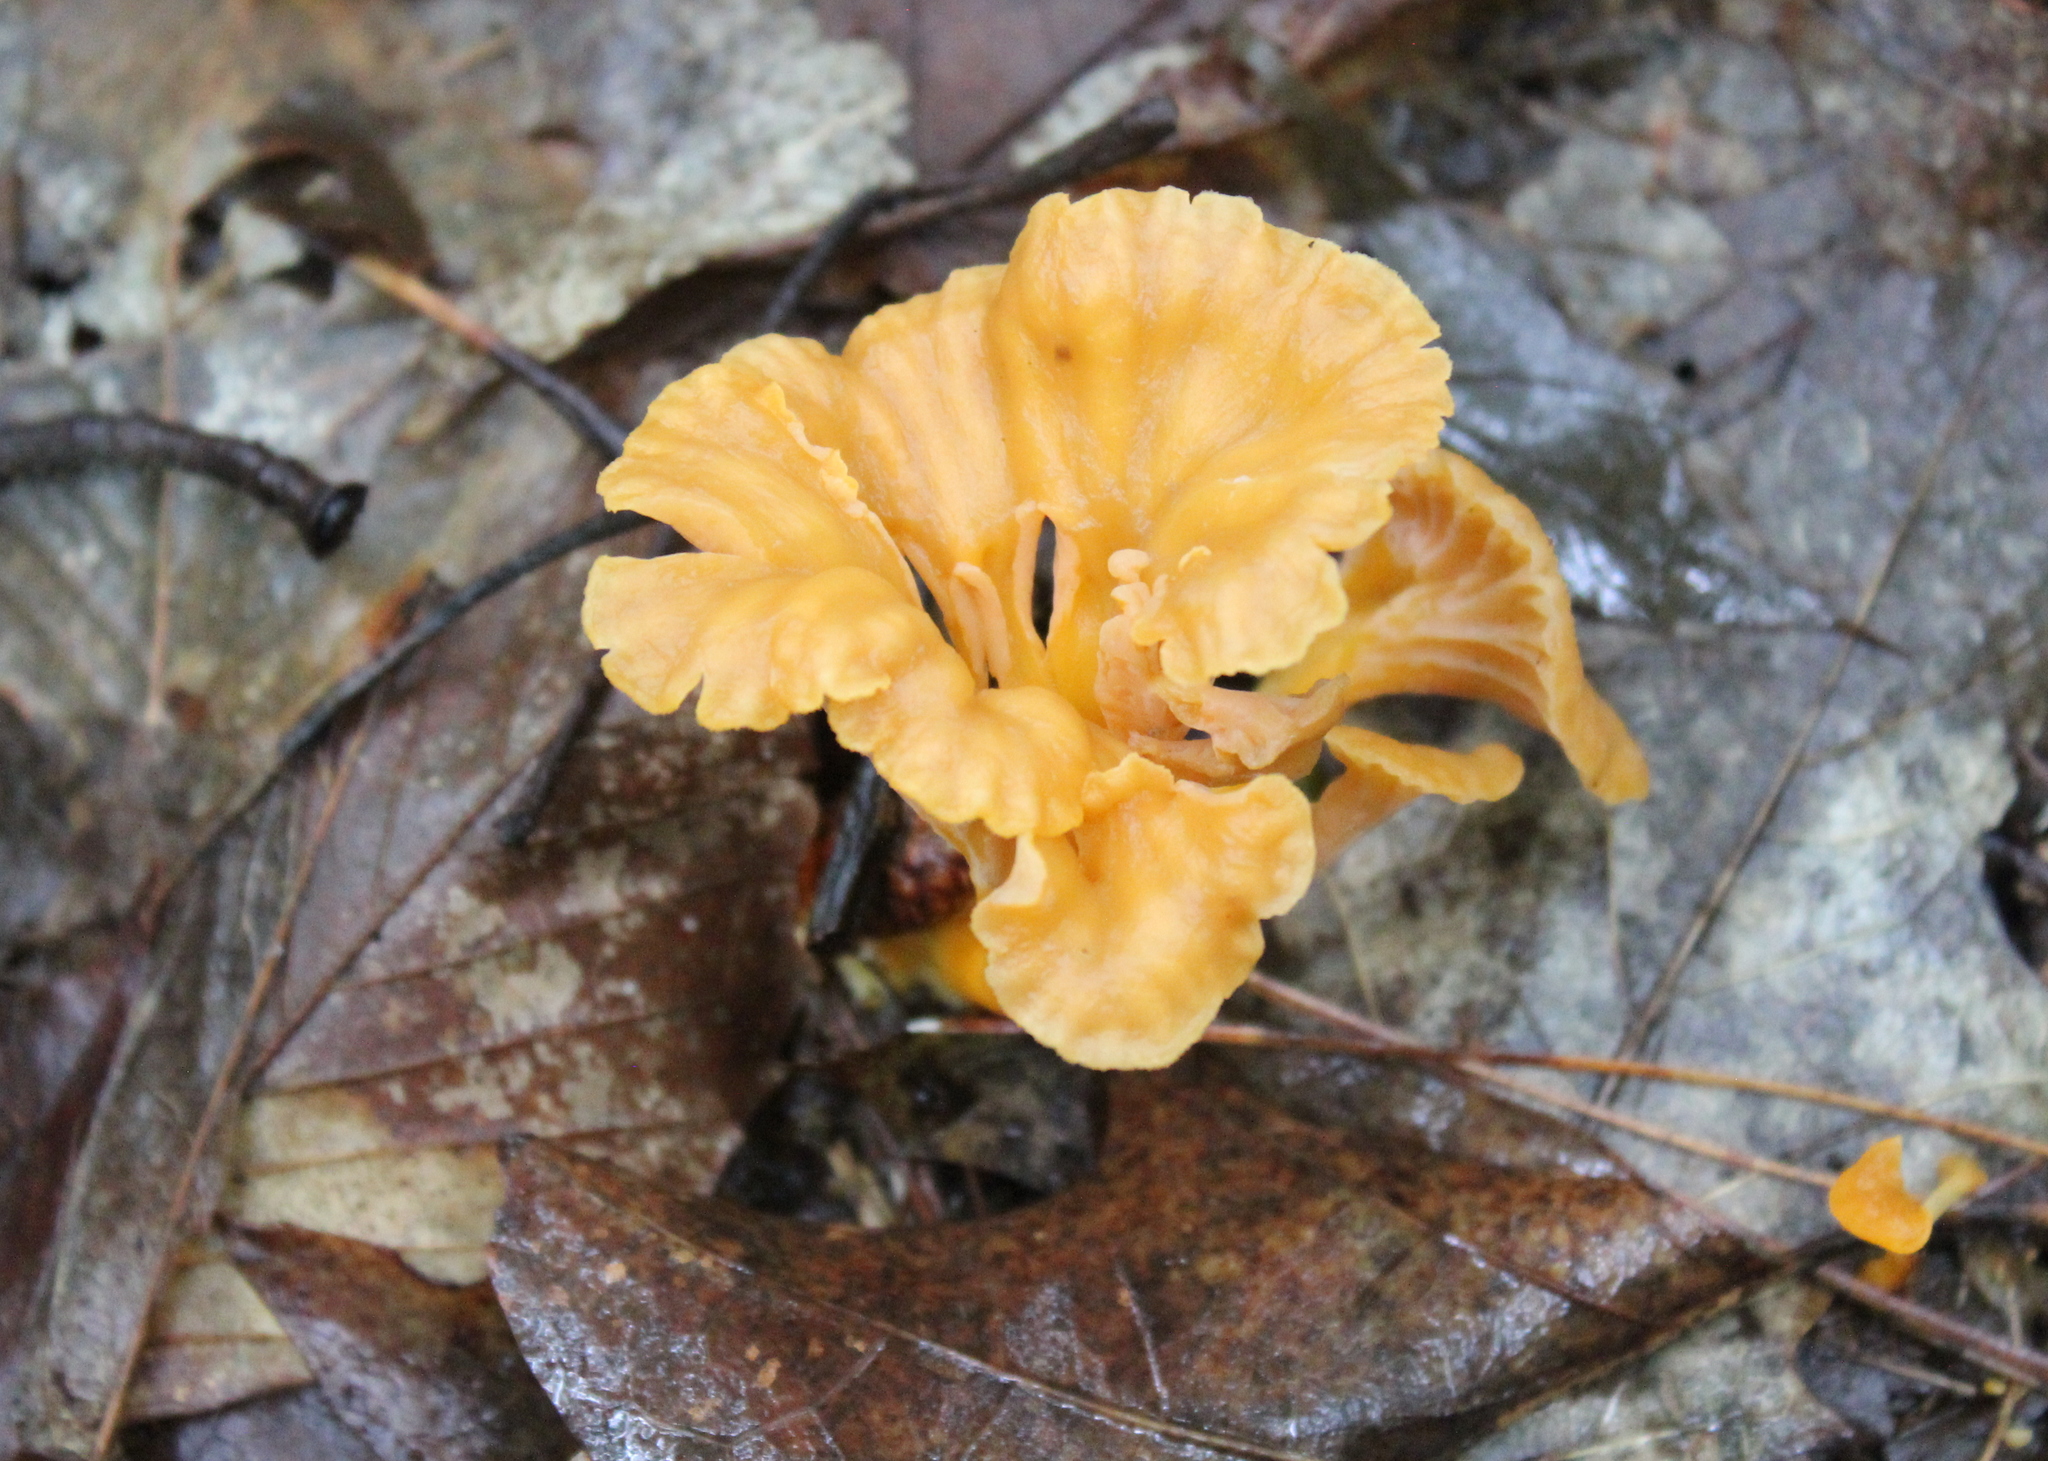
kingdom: Fungi
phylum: Basidiomycota
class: Agaricomycetes
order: Cantharellales
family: Hydnaceae
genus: Craterellus
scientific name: Craterellus ignicolor
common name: Flame chanterelle
